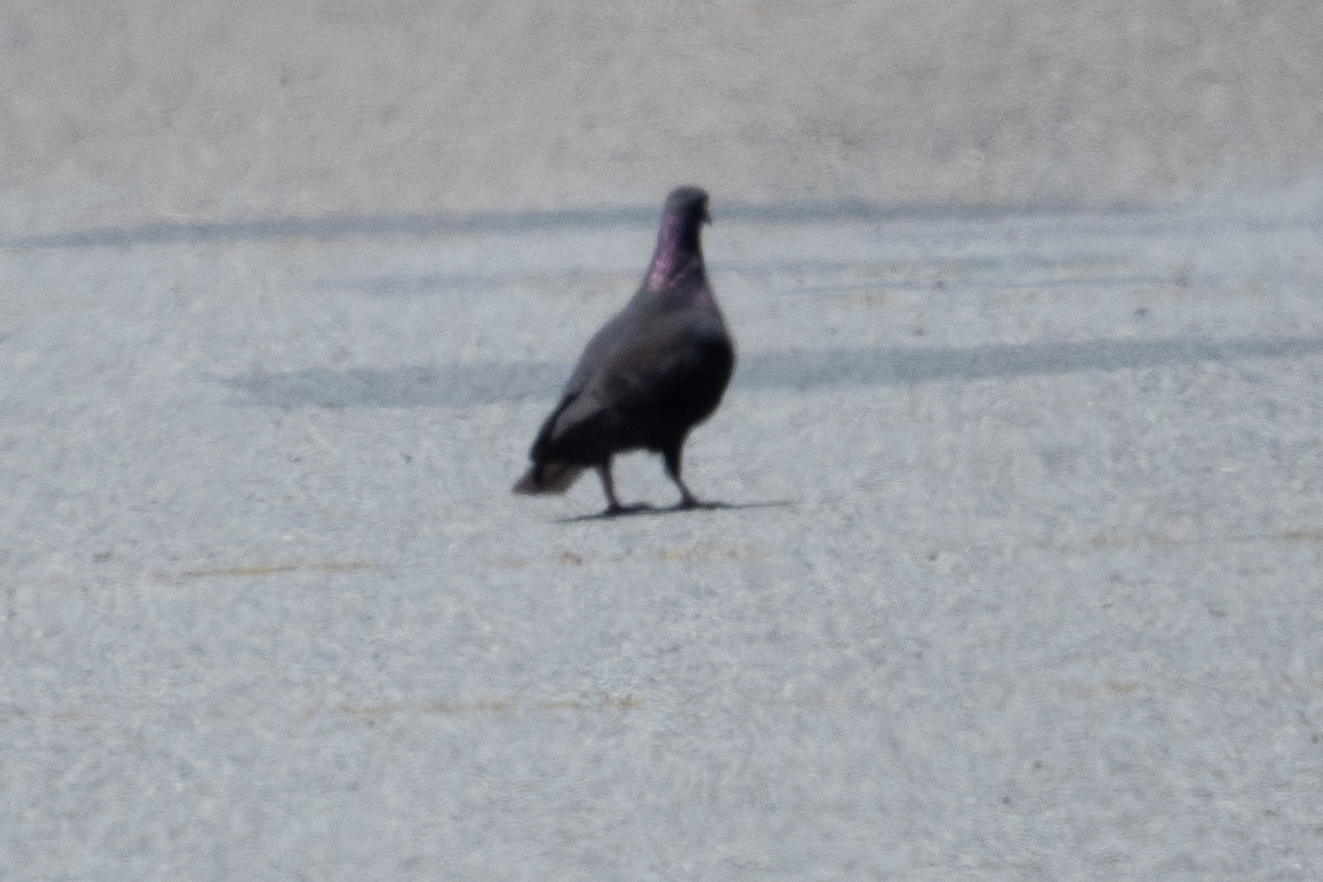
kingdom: Animalia
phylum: Chordata
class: Aves
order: Columbiformes
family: Columbidae
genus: Columba
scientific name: Columba livia
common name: Rock pigeon
